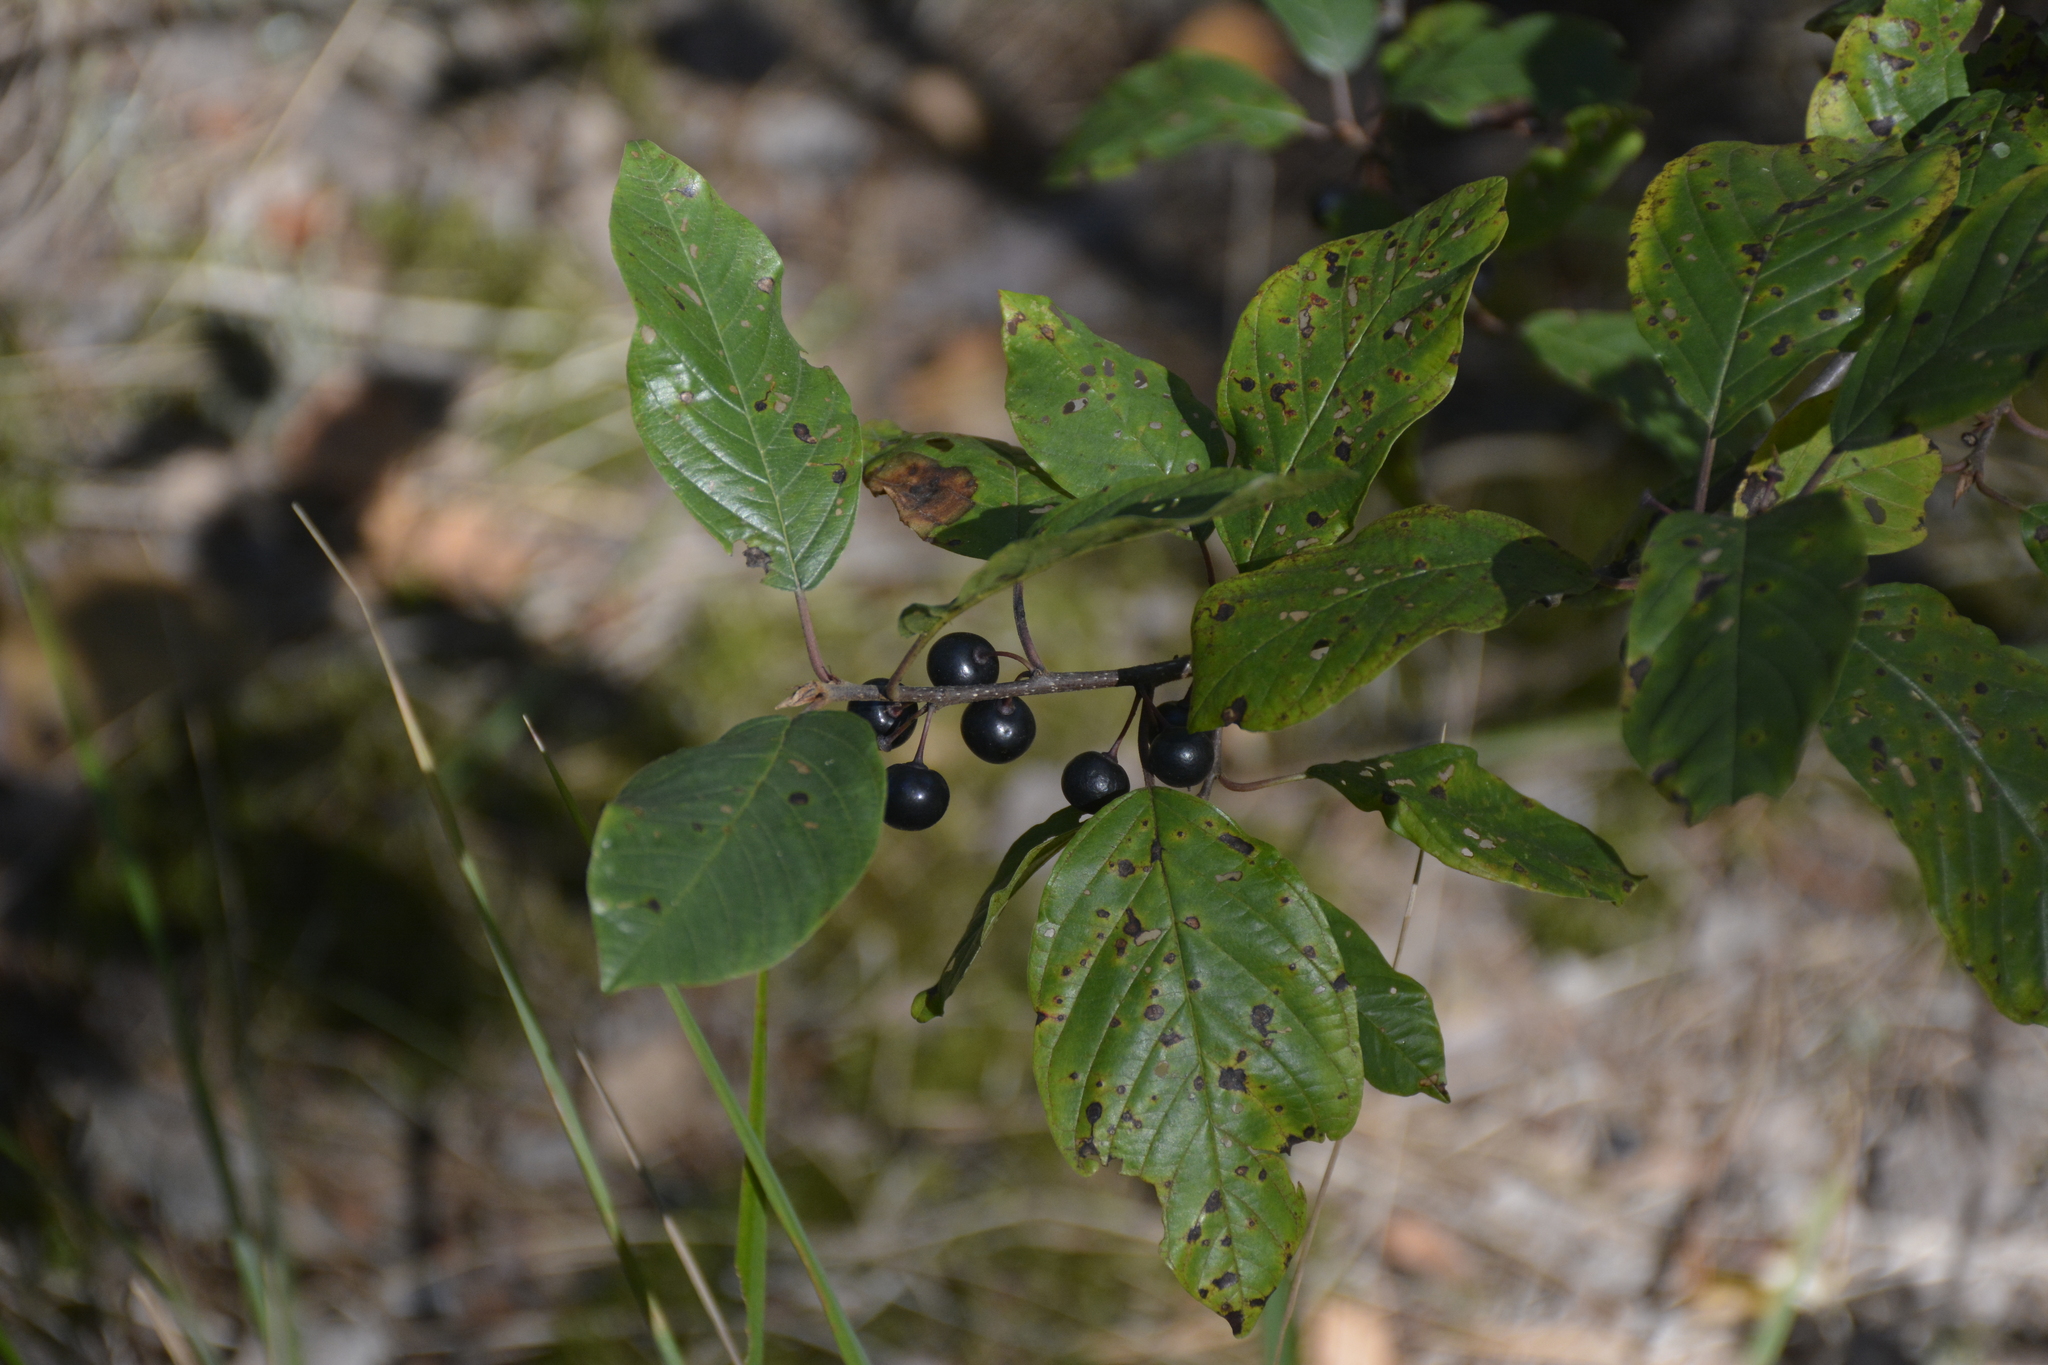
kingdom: Plantae
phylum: Tracheophyta
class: Magnoliopsida
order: Rosales
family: Rhamnaceae
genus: Frangula
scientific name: Frangula alnus
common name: Alder buckthorn
